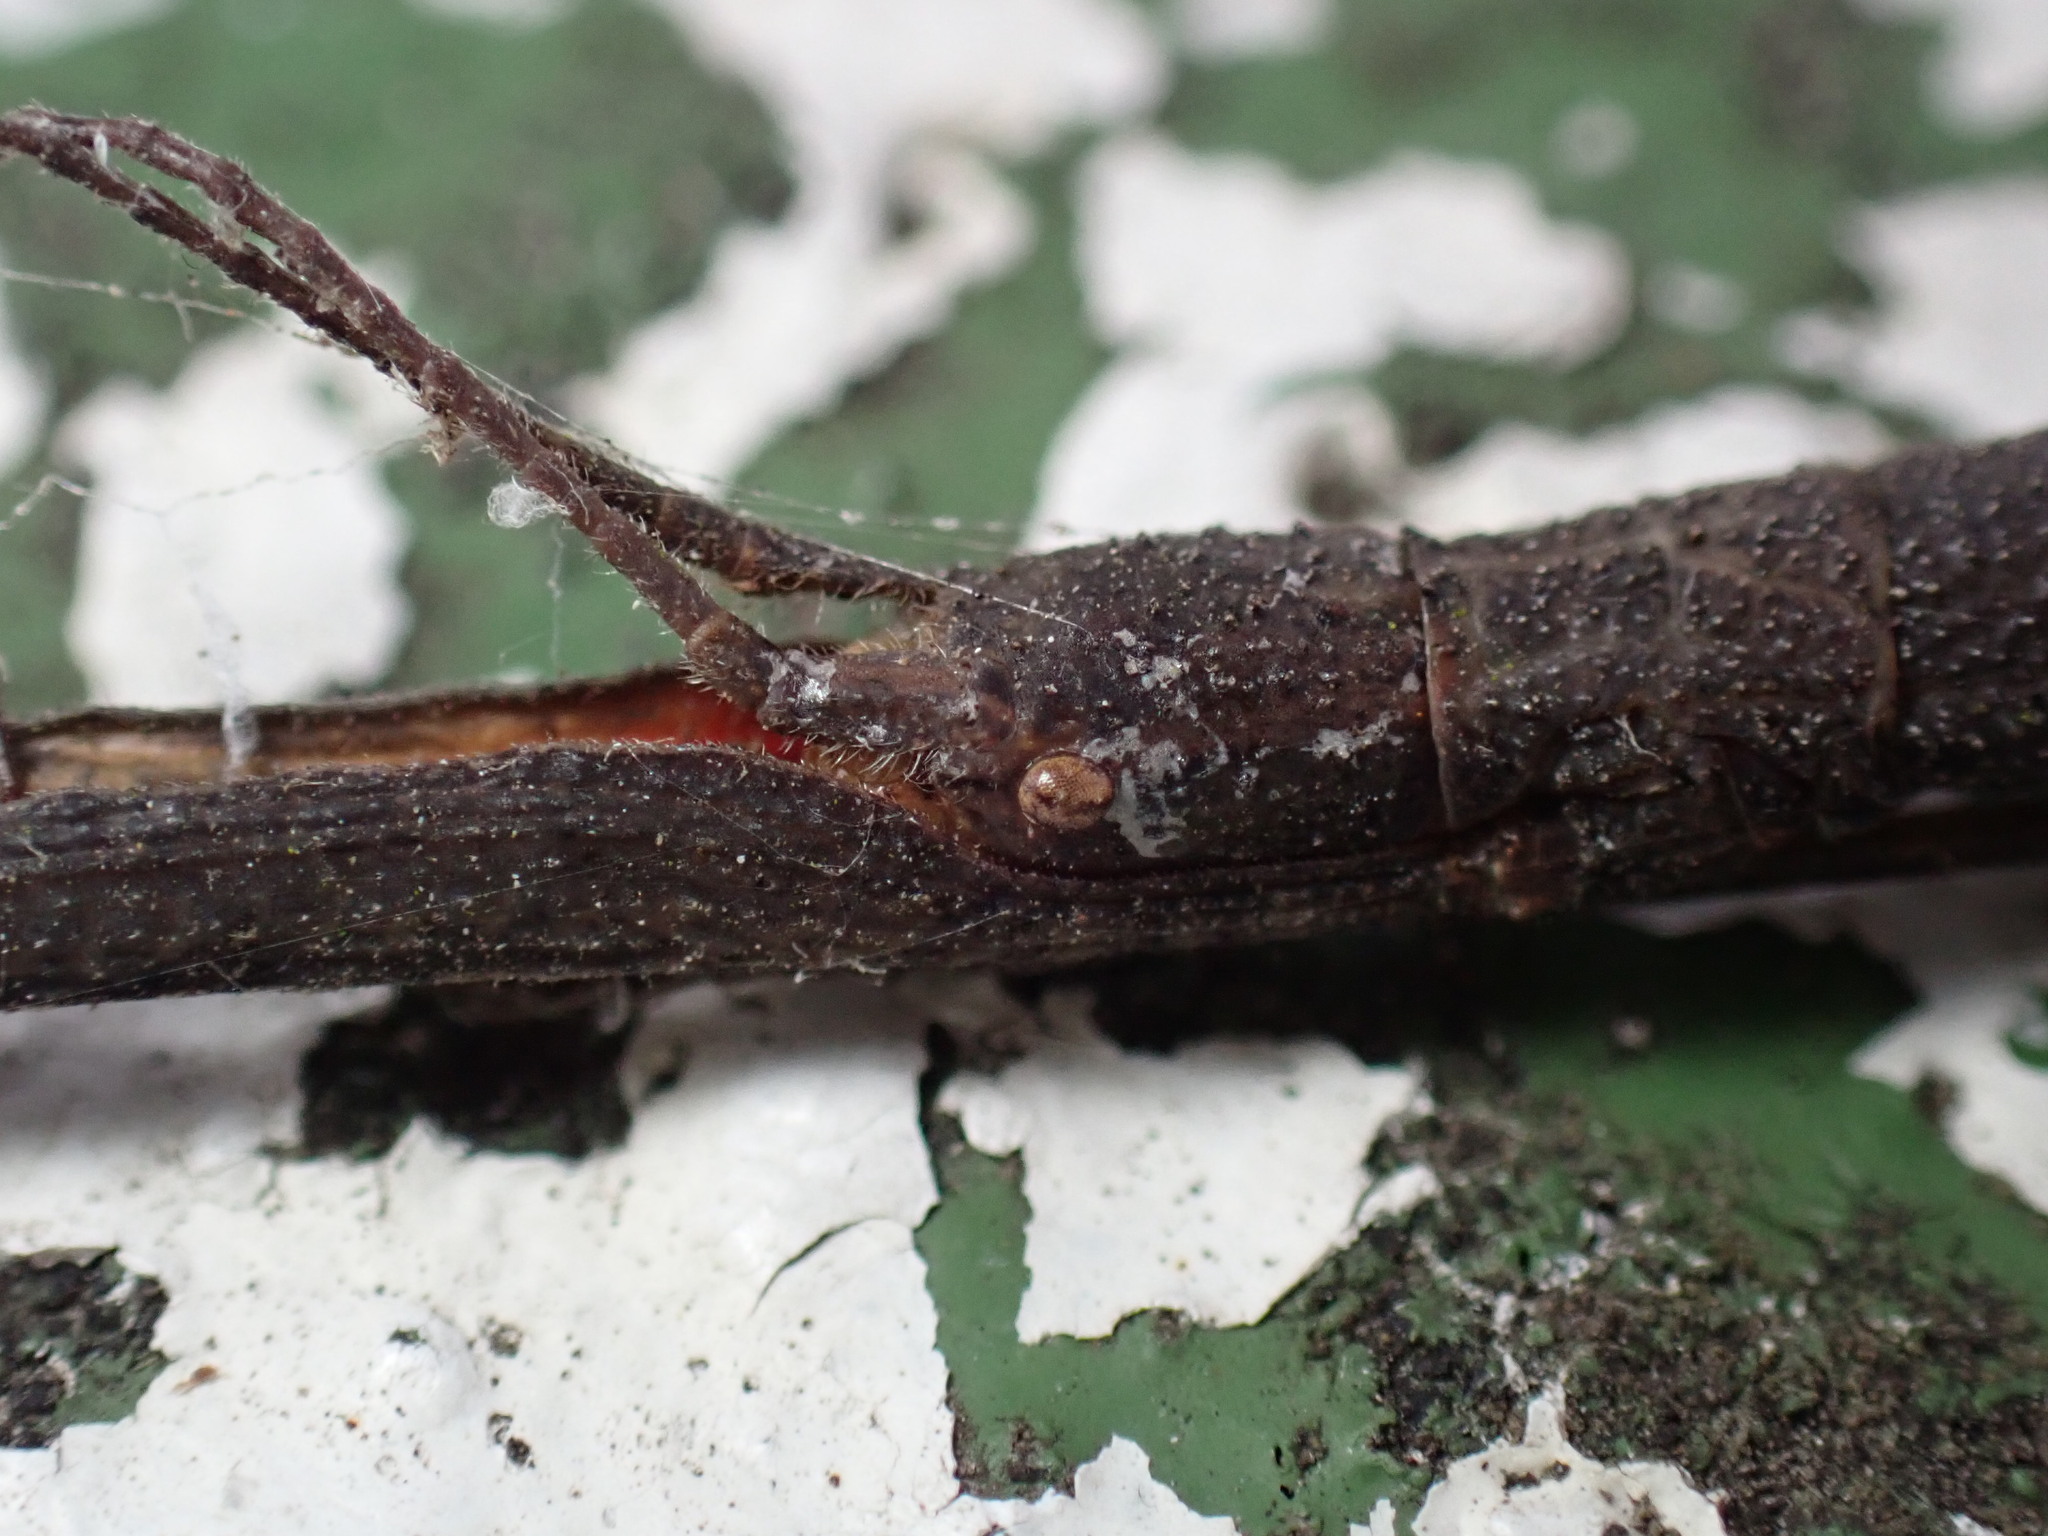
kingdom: Animalia
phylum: Arthropoda
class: Insecta
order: Phasmida
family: Lonchodidae
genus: Carausius
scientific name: Carausius morosus
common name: Indian stick insect
